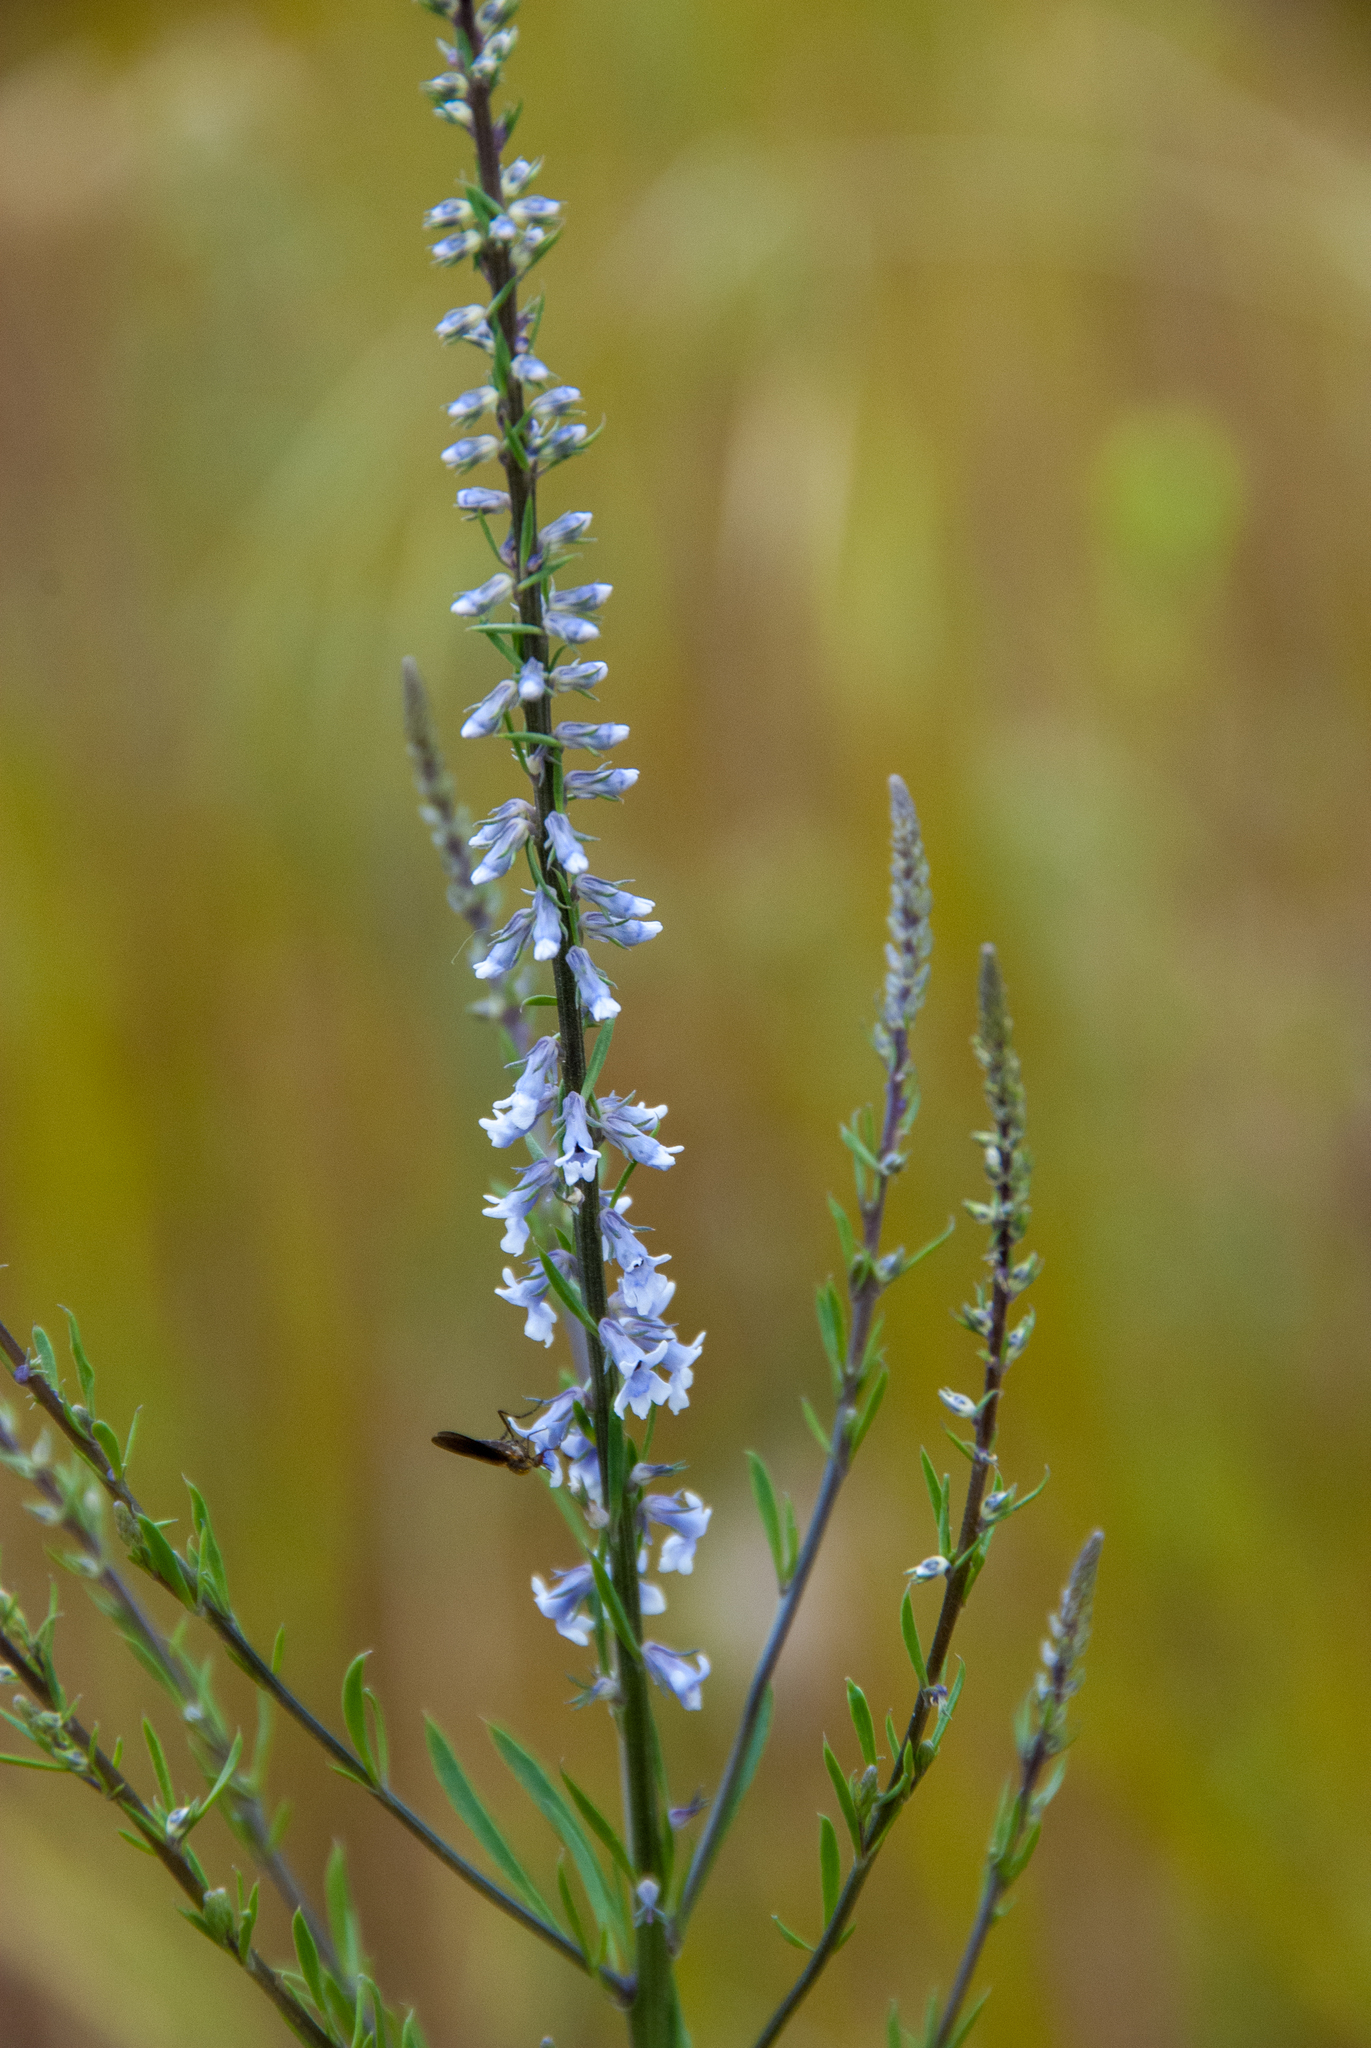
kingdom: Plantae
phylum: Tracheophyta
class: Magnoliopsida
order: Lamiales
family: Plantaginaceae
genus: Anarrhinum
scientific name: Anarrhinum bellidifolium
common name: Daisy-leaved toadflax
